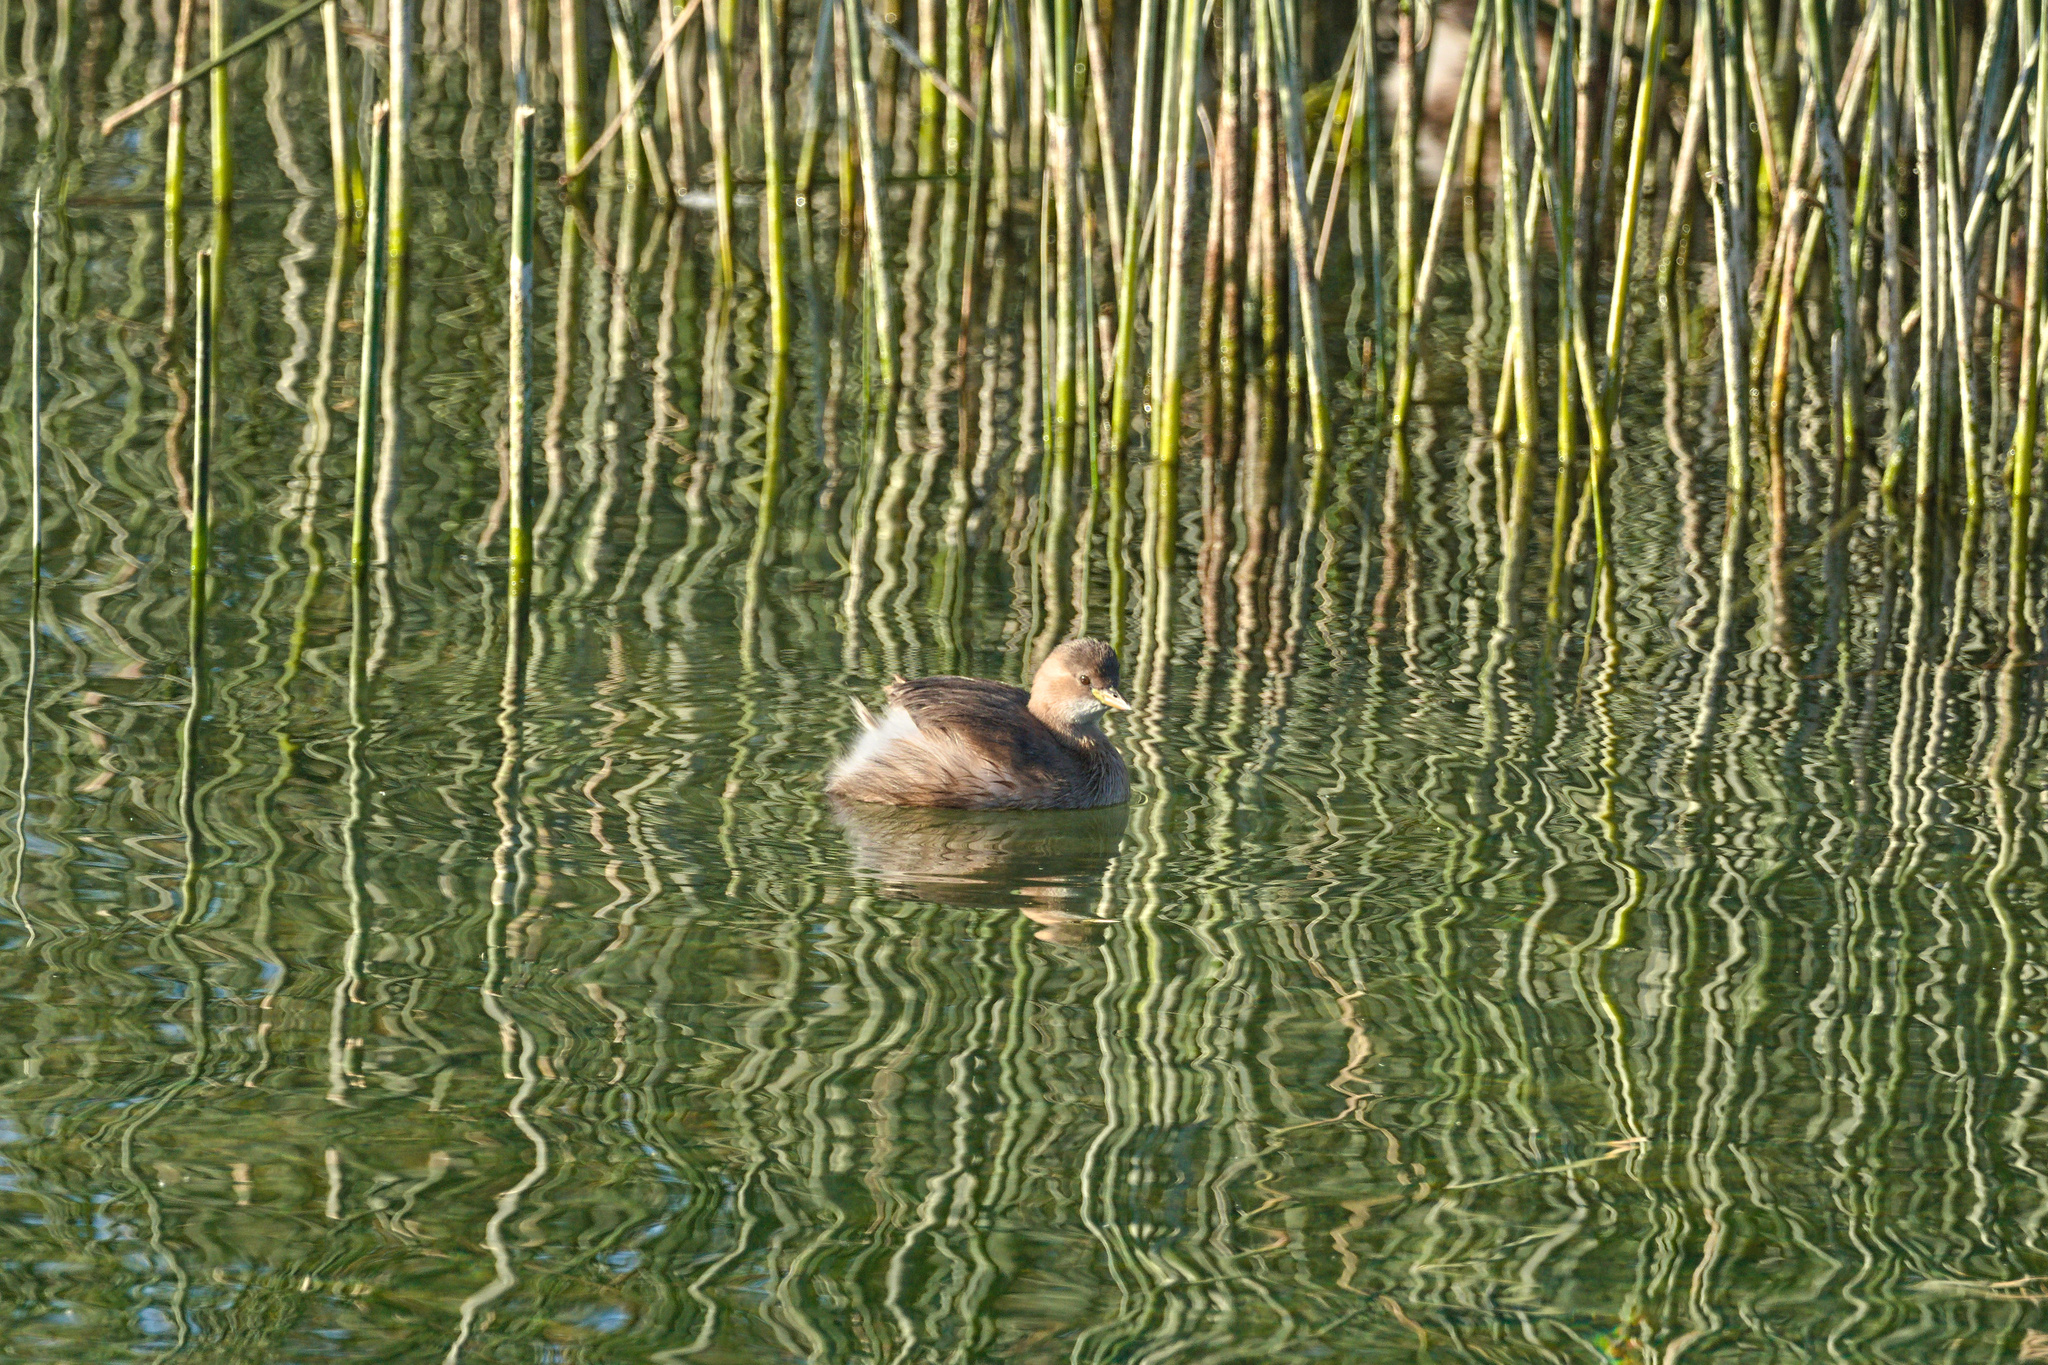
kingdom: Animalia
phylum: Chordata
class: Aves
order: Podicipediformes
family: Podicipedidae
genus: Tachybaptus
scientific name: Tachybaptus ruficollis
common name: Little grebe
